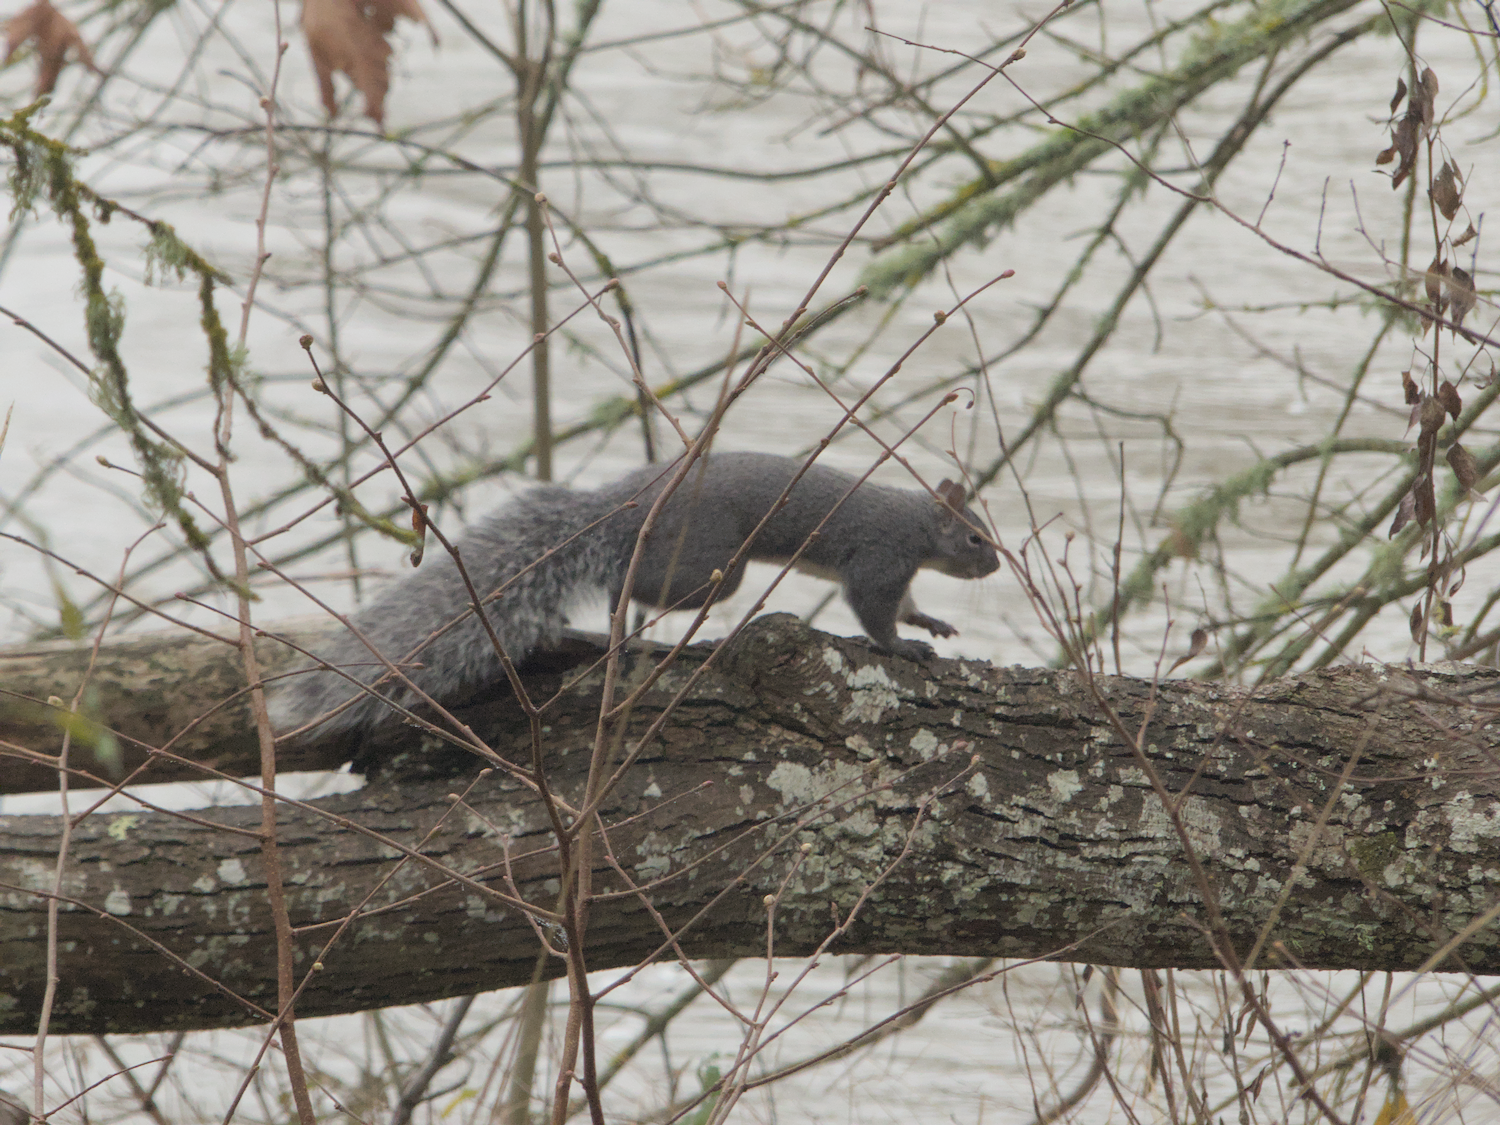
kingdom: Animalia
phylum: Chordata
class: Mammalia
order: Rodentia
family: Sciuridae
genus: Sciurus
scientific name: Sciurus griseus
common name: Western gray squirrel
